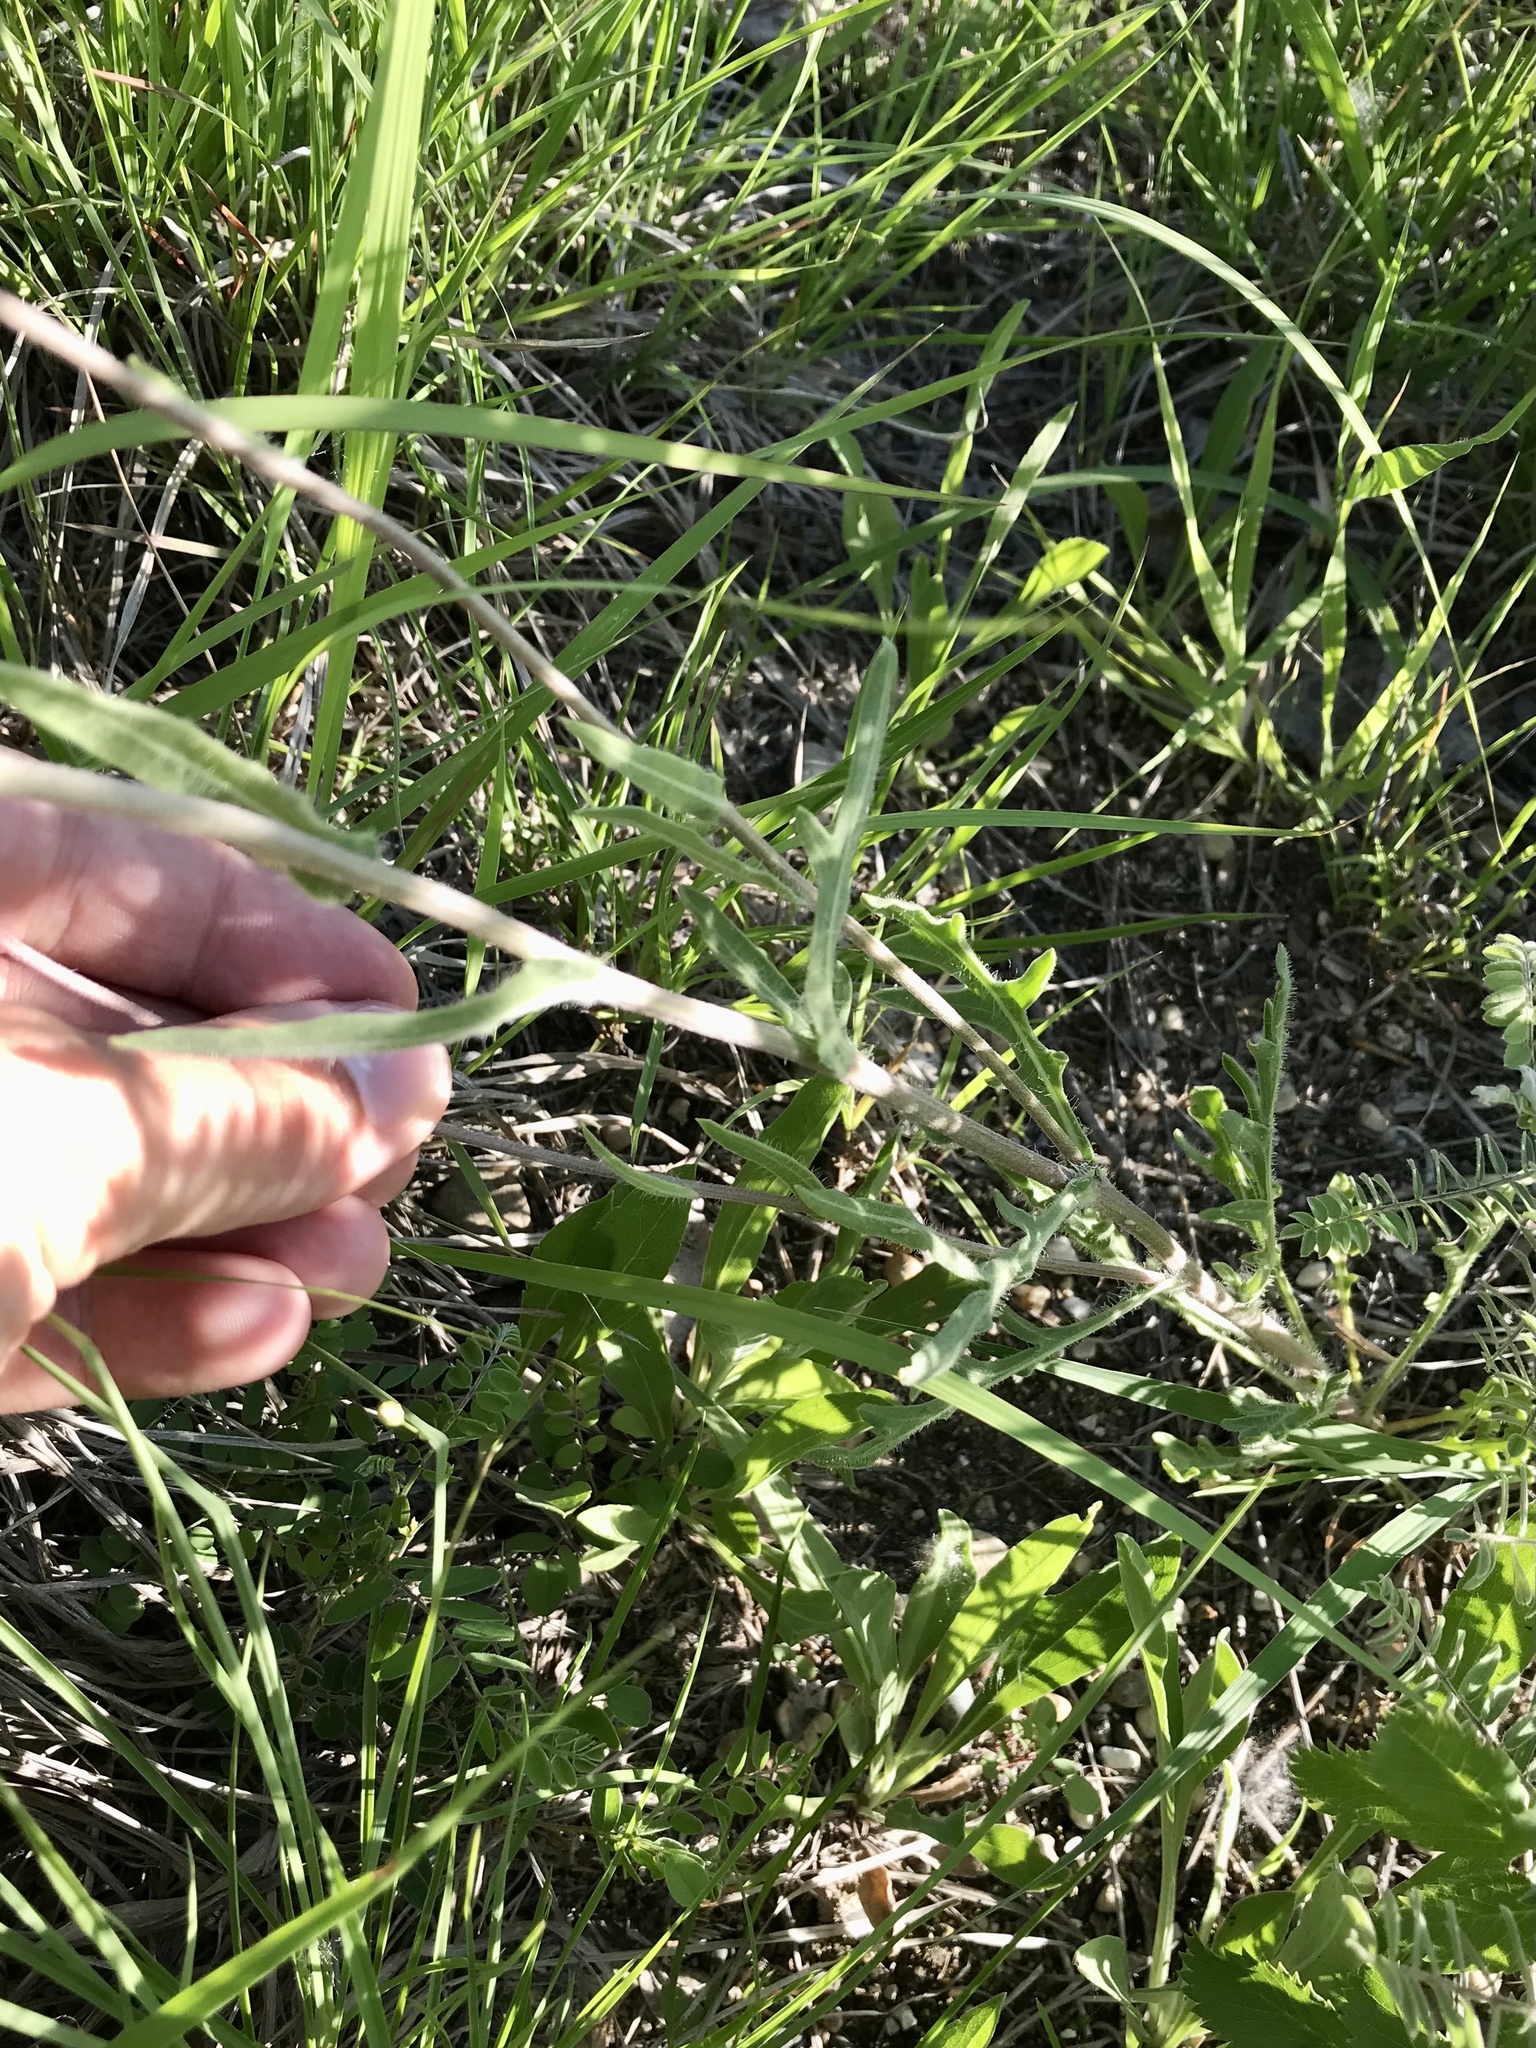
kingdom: Plantae
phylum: Tracheophyta
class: Magnoliopsida
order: Asterales
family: Asteraceae
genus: Gaillardia
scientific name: Gaillardia aristata
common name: Blanket-flower
